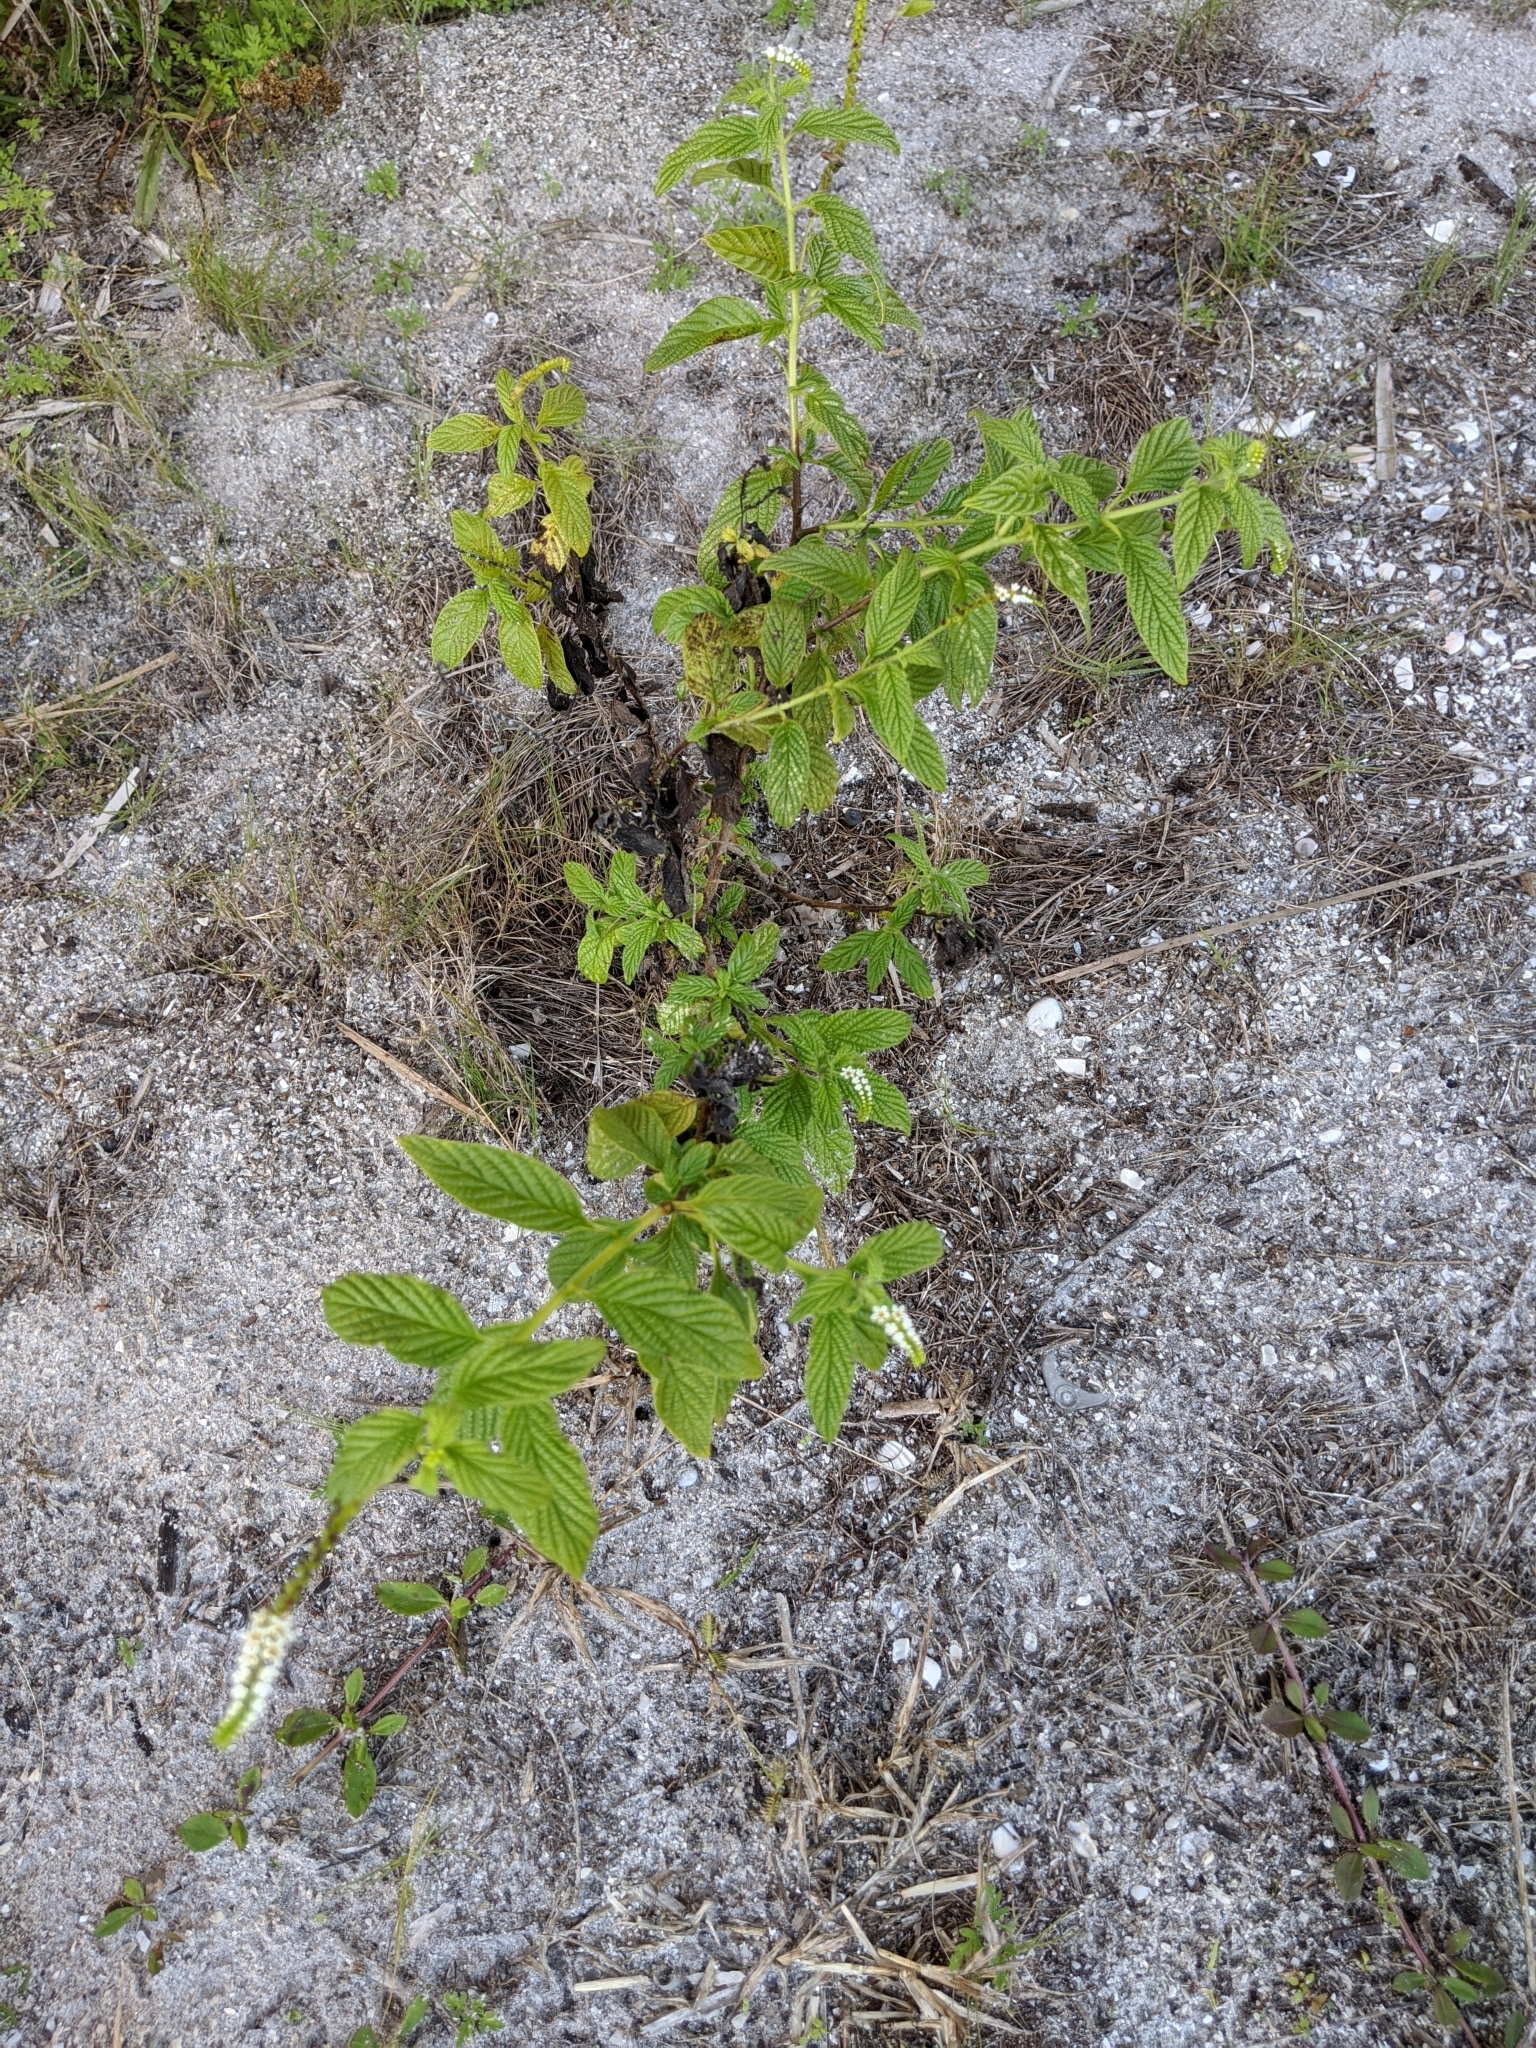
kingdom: Plantae
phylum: Tracheophyta
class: Magnoliopsida
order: Boraginales
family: Heliotropiaceae
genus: Heliotropium
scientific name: Heliotropium angiospermum
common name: Eye bright
